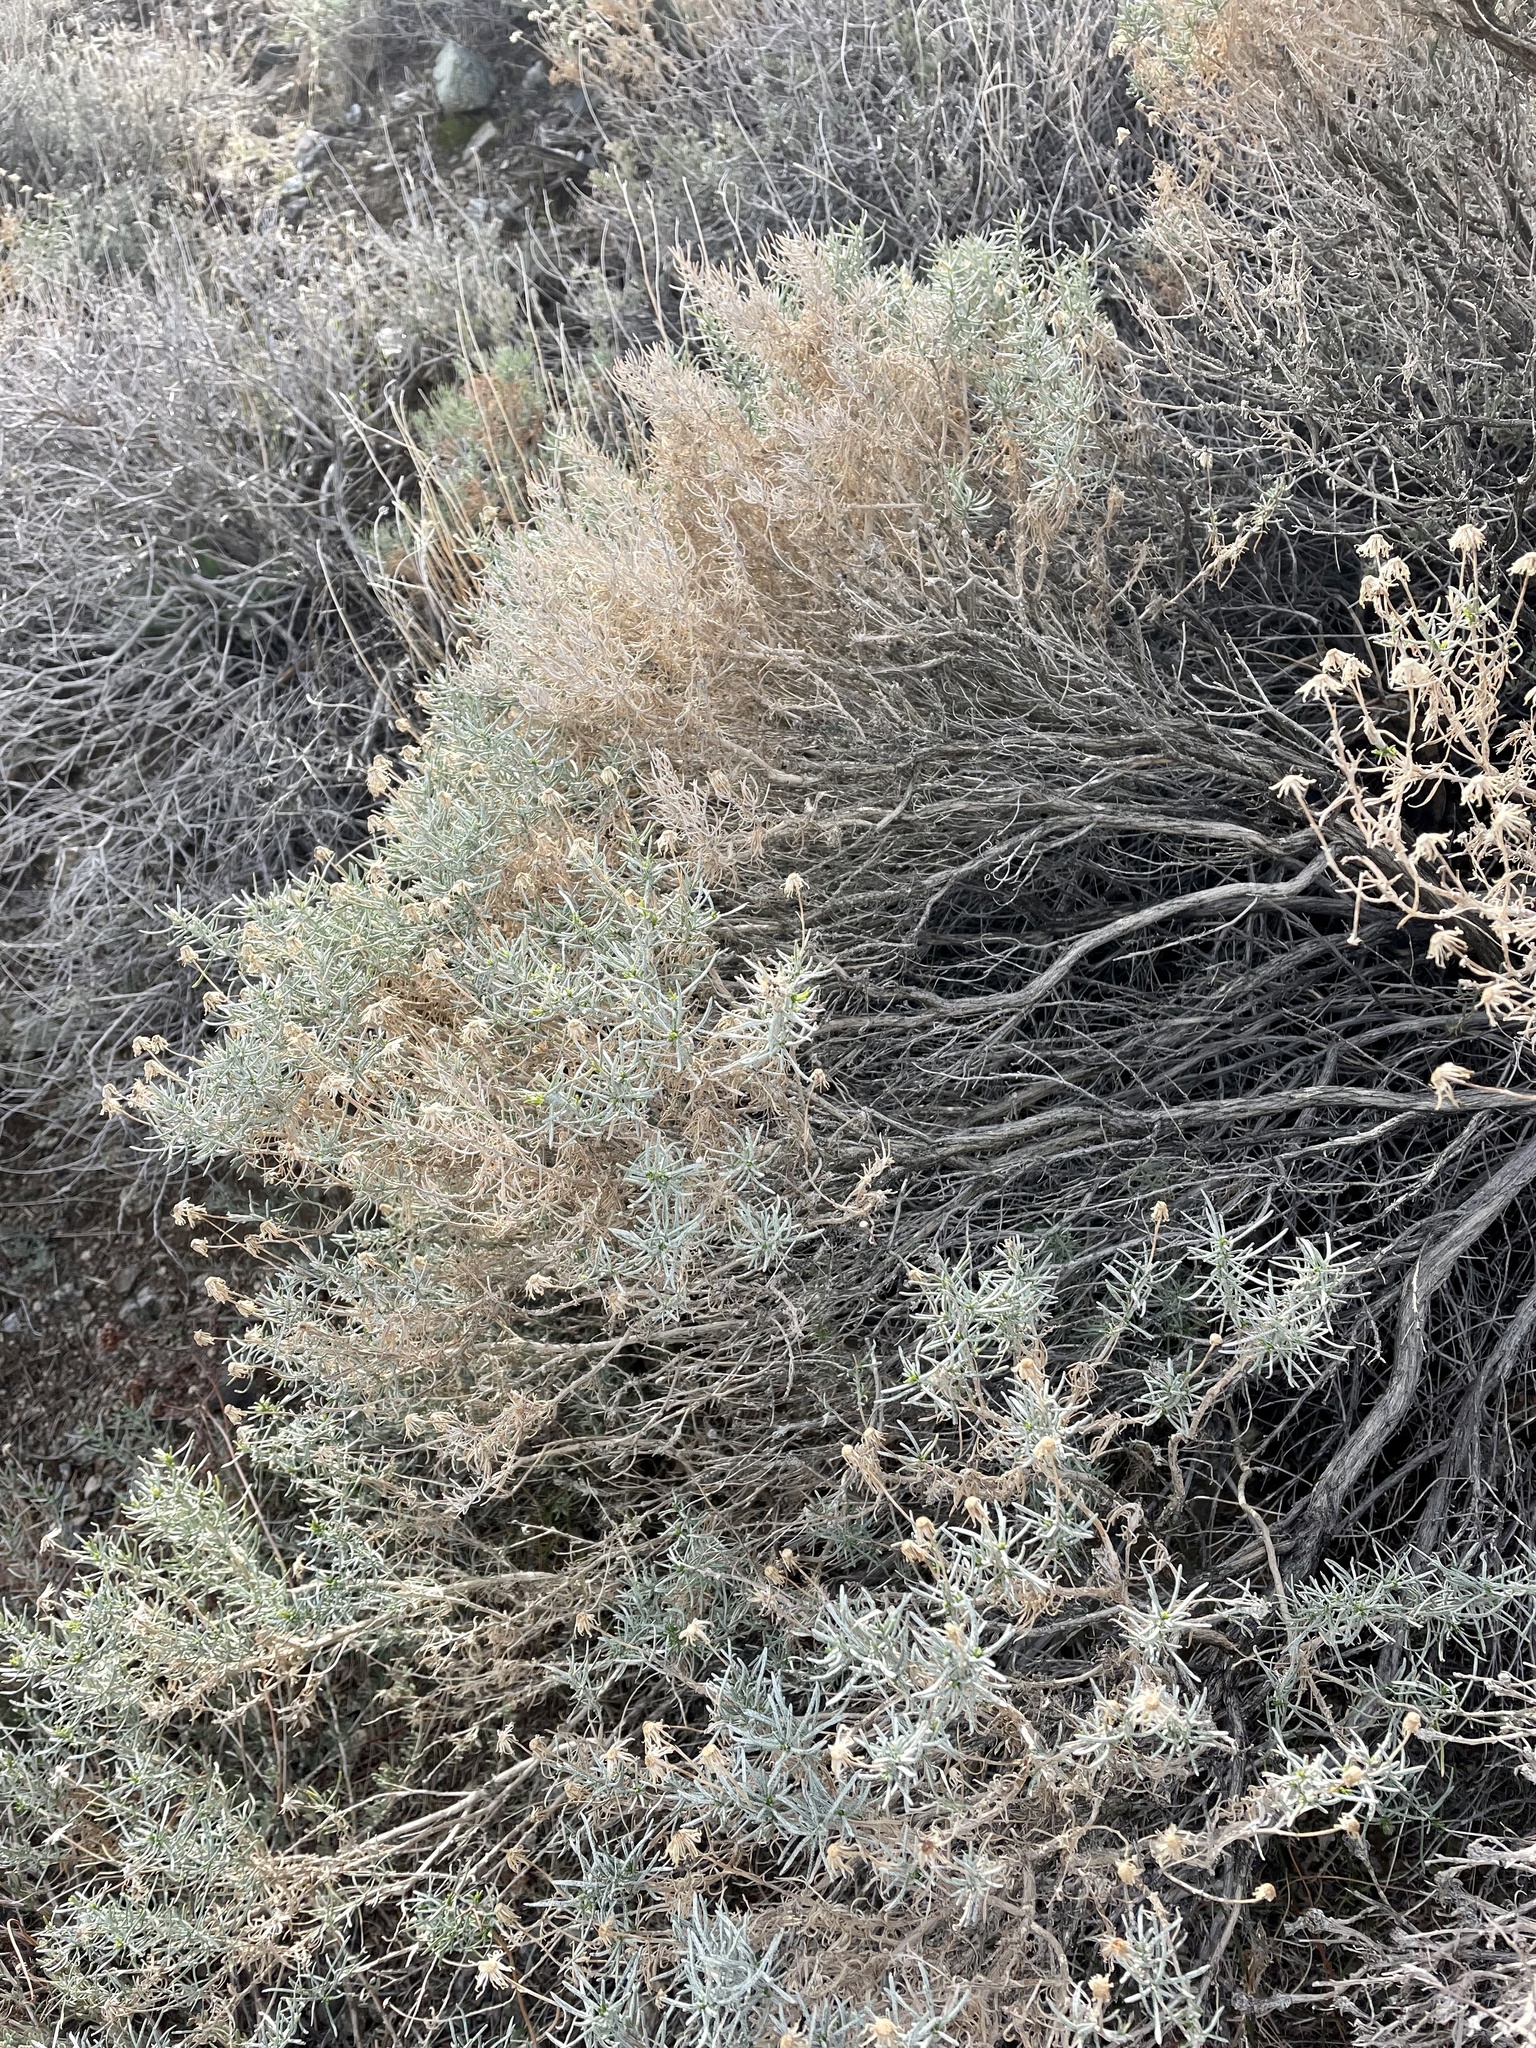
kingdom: Plantae
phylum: Tracheophyta
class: Magnoliopsida
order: Asterales
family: Asteraceae
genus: Ericameria
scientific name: Ericameria linearifolia
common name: Interior goldenbush
